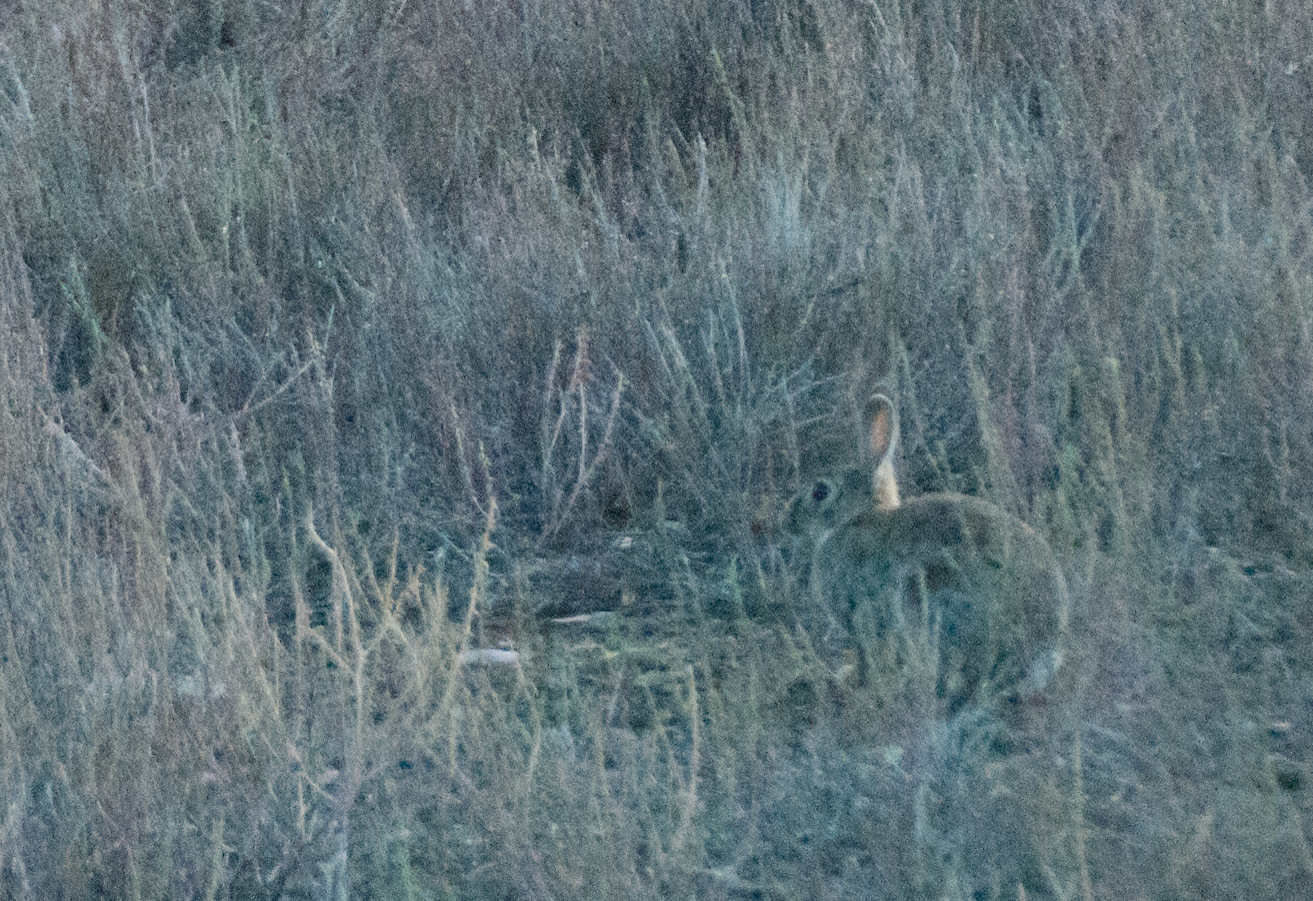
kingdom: Animalia
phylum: Chordata
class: Mammalia
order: Lagomorpha
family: Leporidae
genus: Oryctolagus
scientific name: Oryctolagus cuniculus
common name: European rabbit
